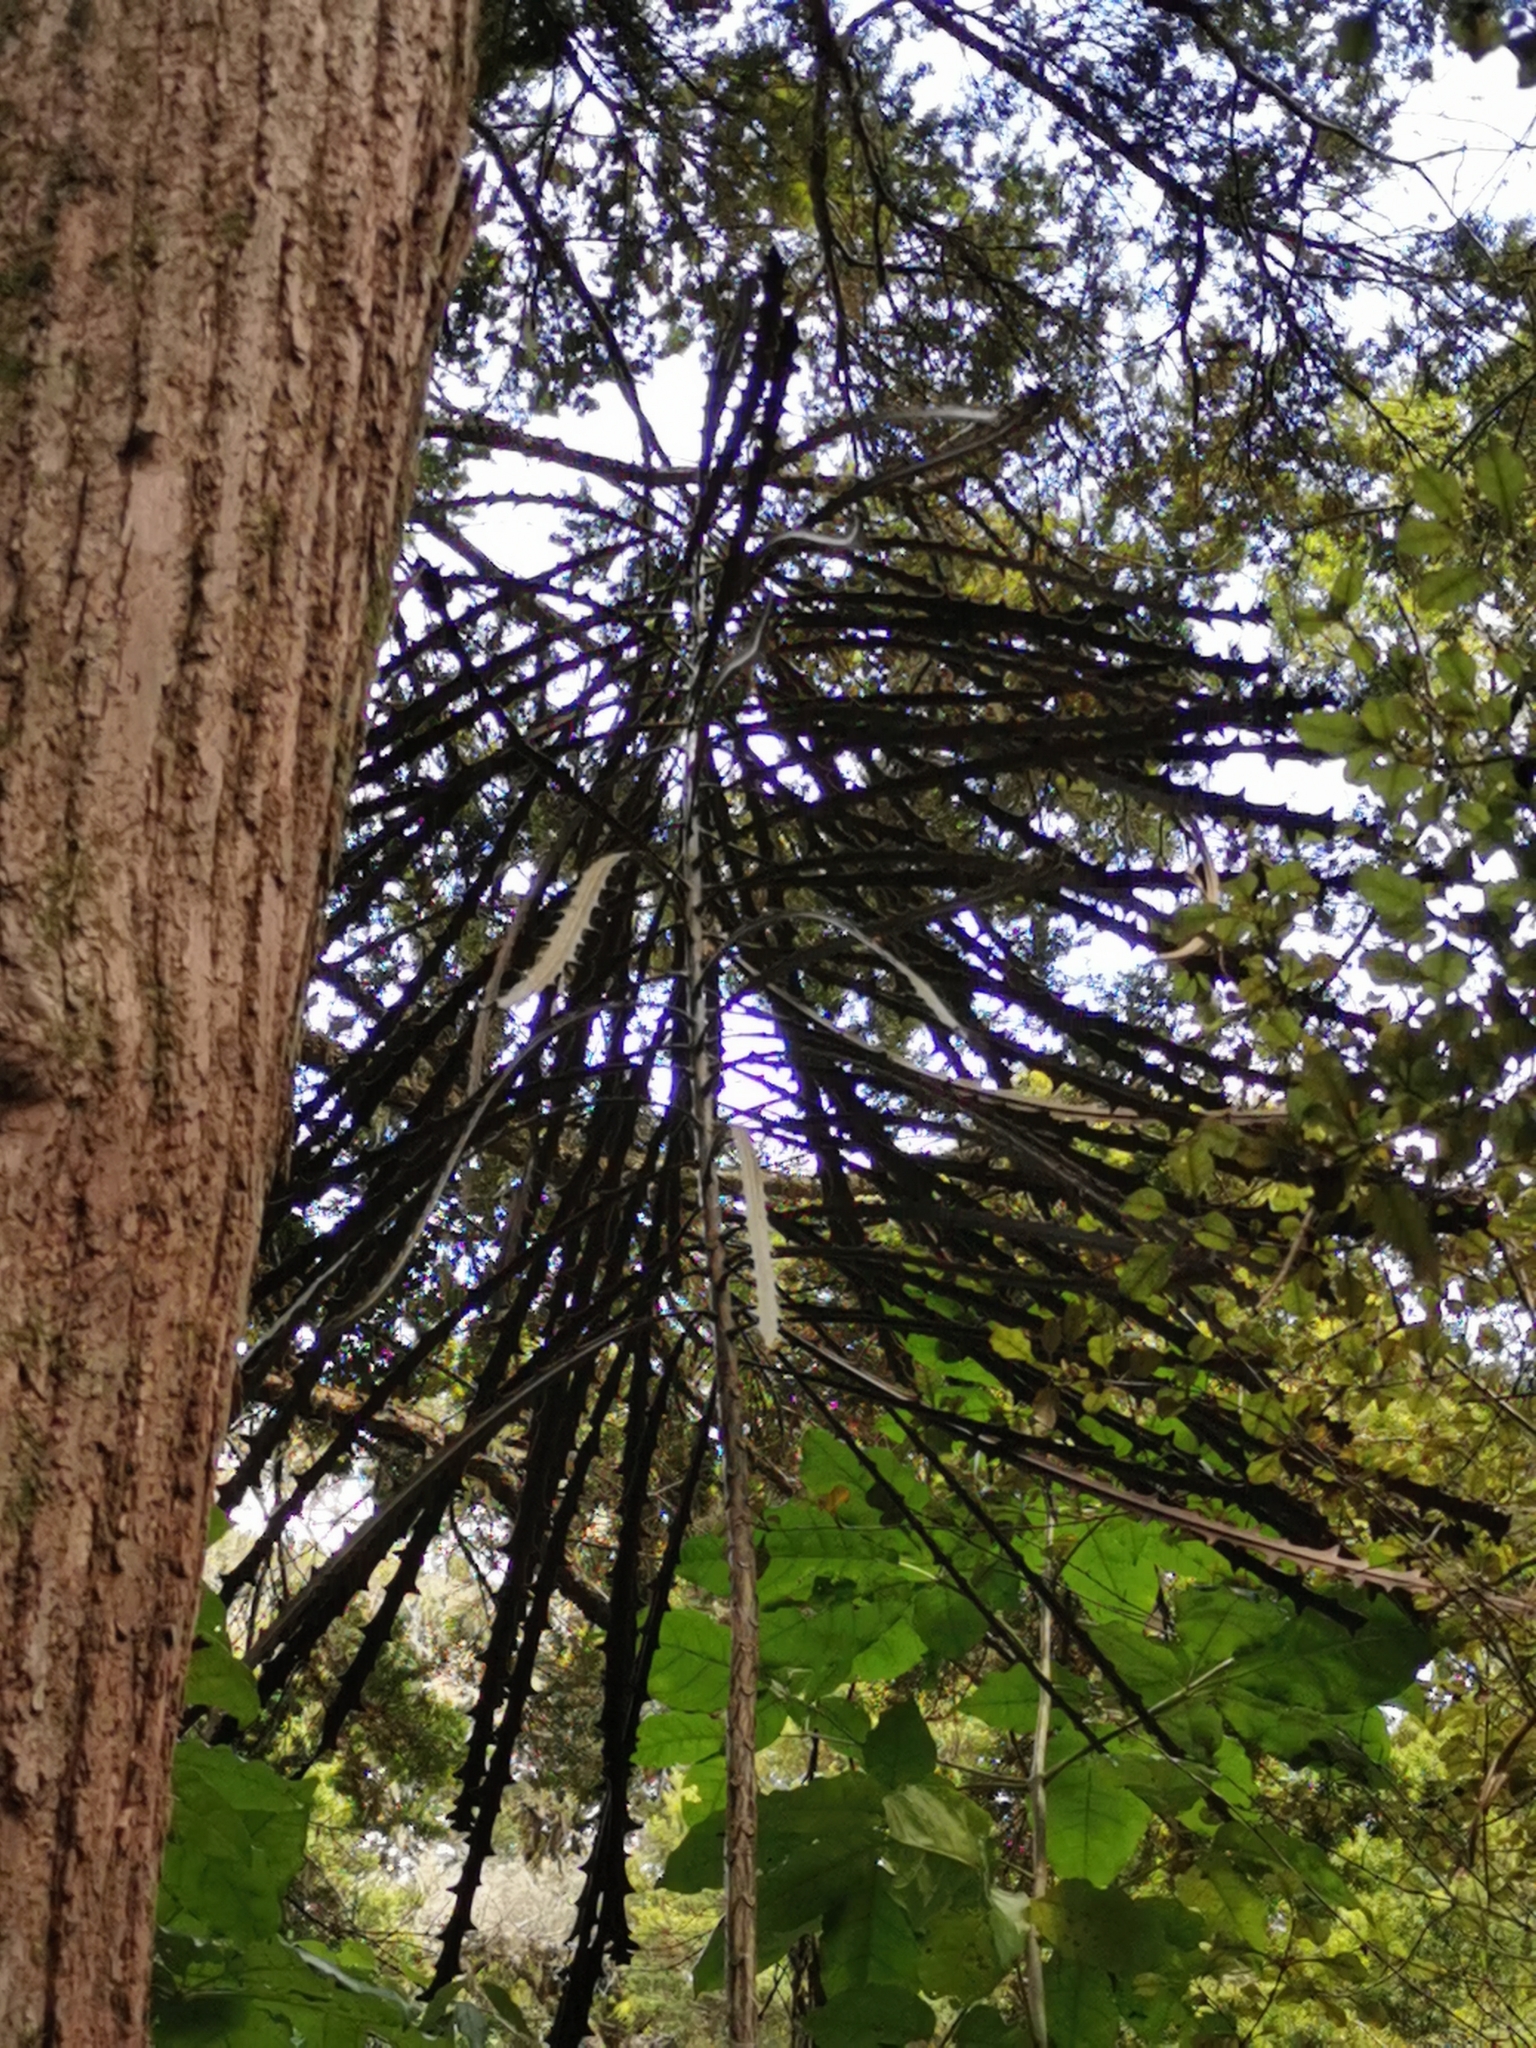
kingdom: Plantae
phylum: Tracheophyta
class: Magnoliopsida
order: Apiales
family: Araliaceae
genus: Pseudopanax
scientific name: Pseudopanax crassifolius
